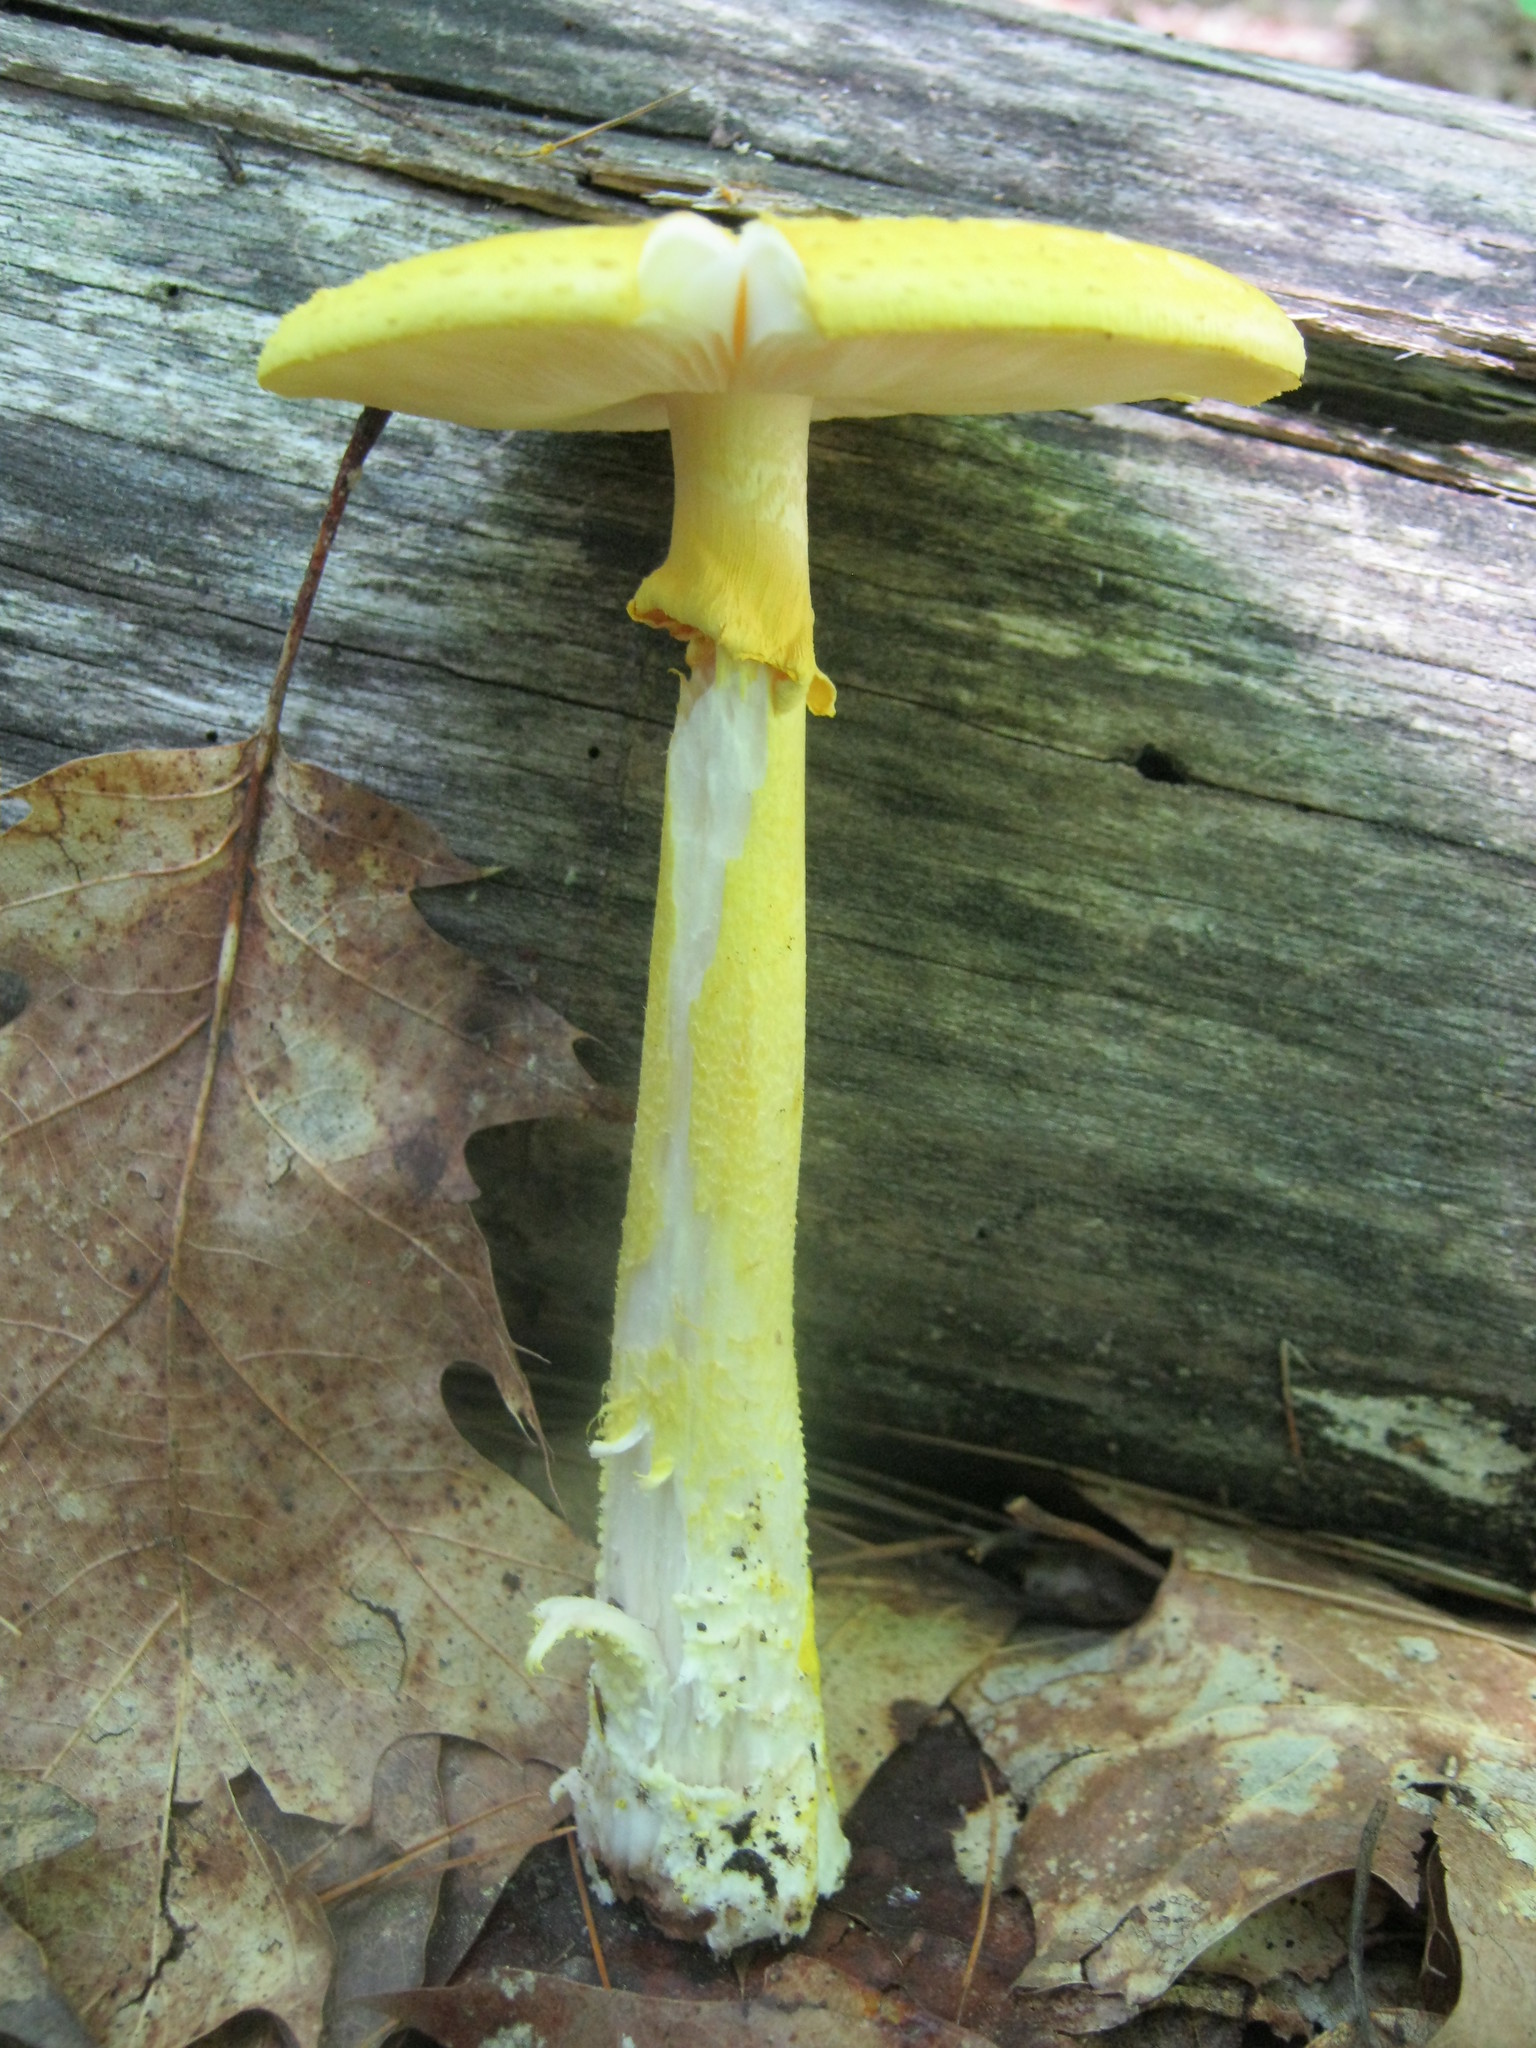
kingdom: Fungi
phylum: Basidiomycota
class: Agaricomycetes
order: Agaricales
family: Amanitaceae
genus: Amanita
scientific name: Amanita flavoconia
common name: Yellow patches
